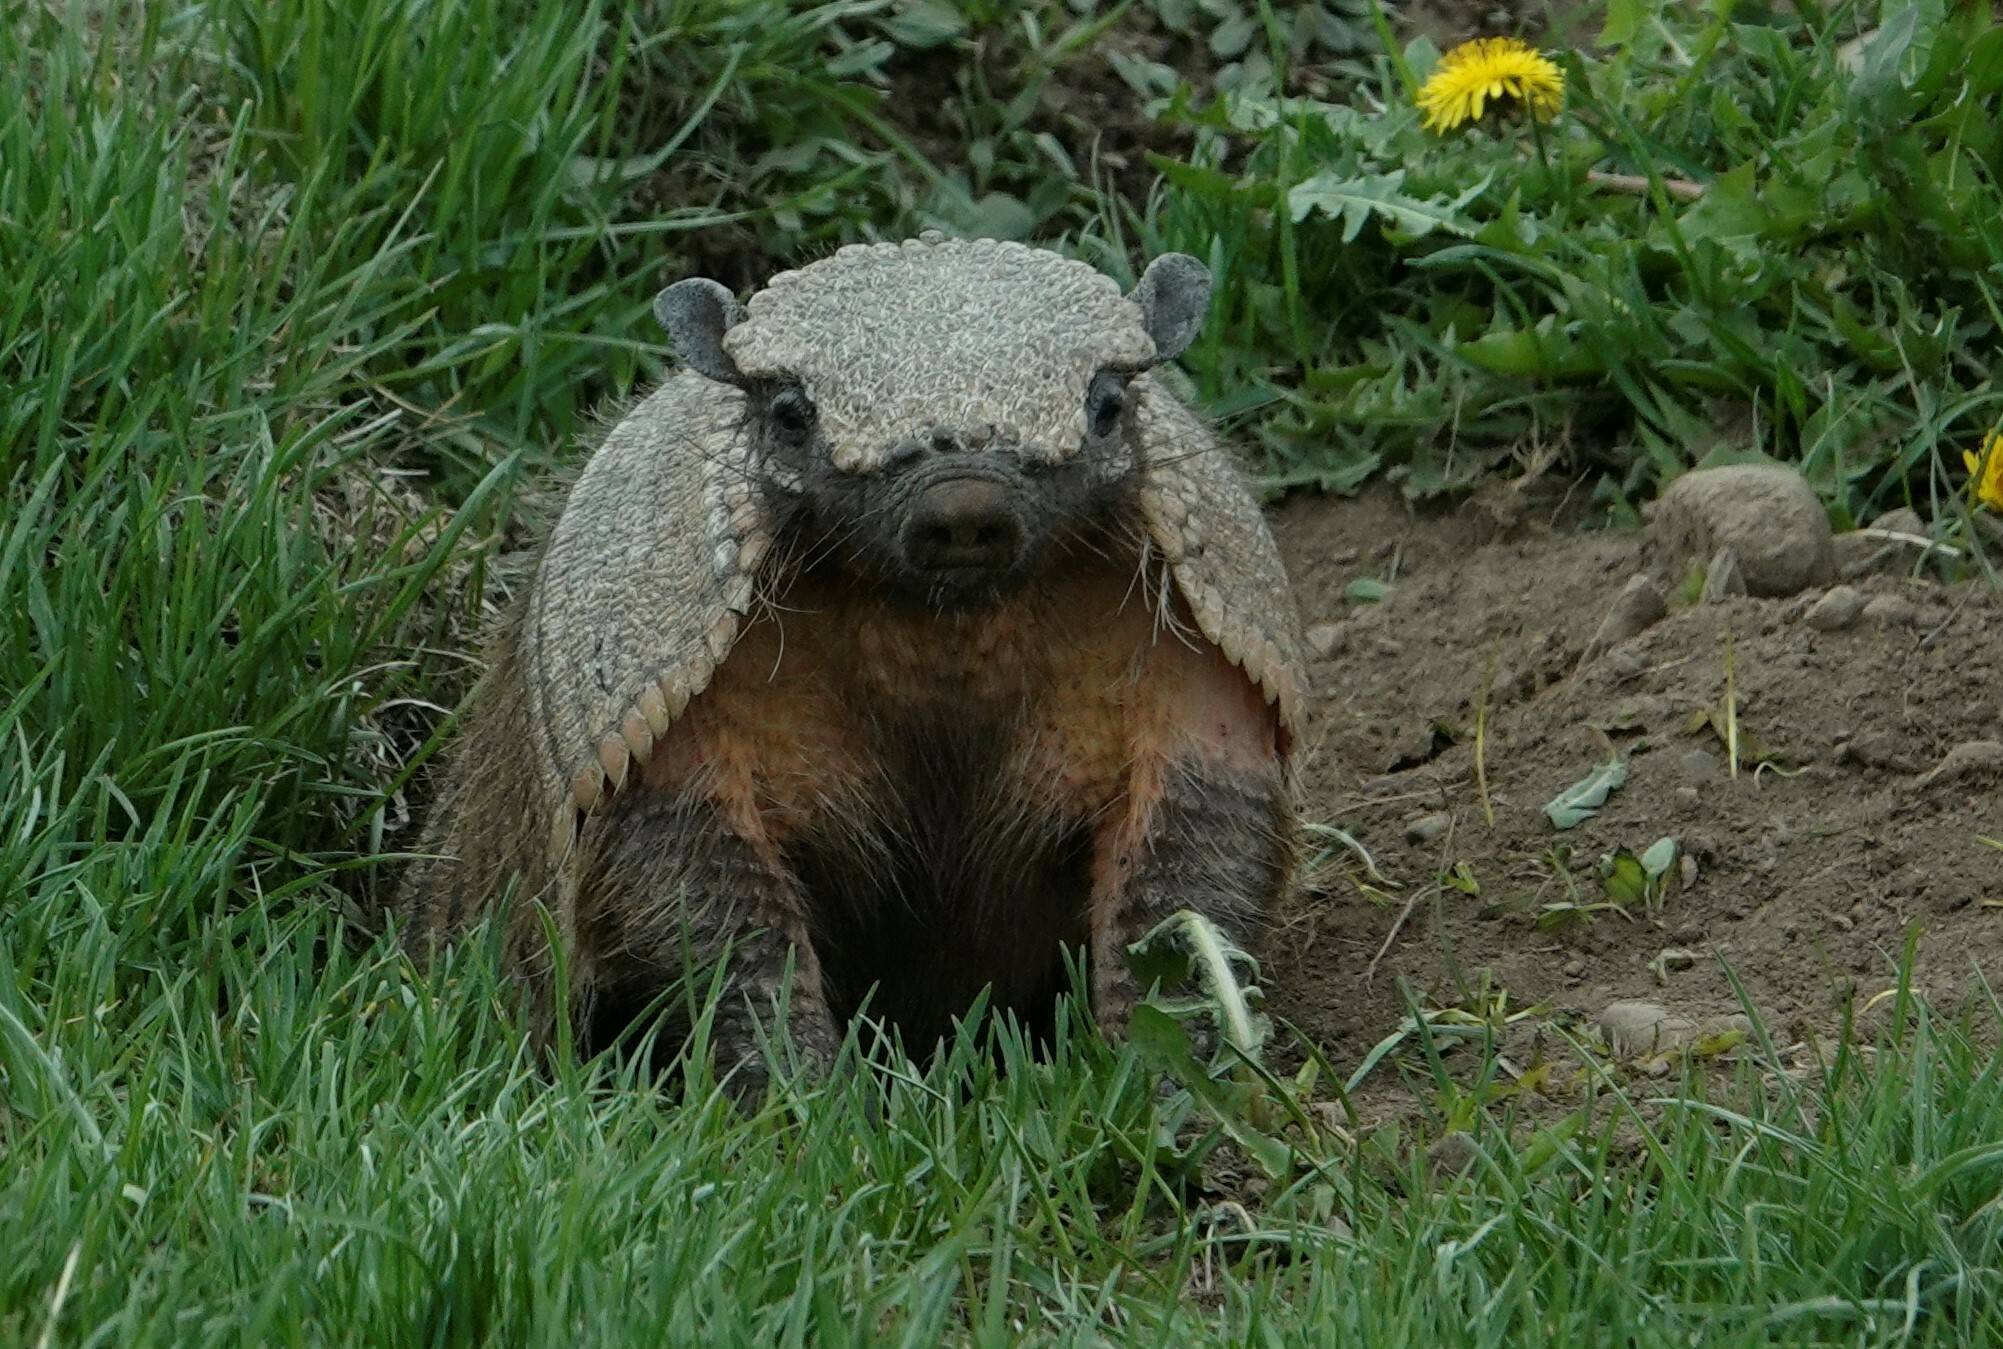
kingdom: Animalia
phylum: Chordata
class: Mammalia
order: Cingulata
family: Dasypodidae
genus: Chaetophractus
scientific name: Chaetophractus villosus
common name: Big hairy armadillo
